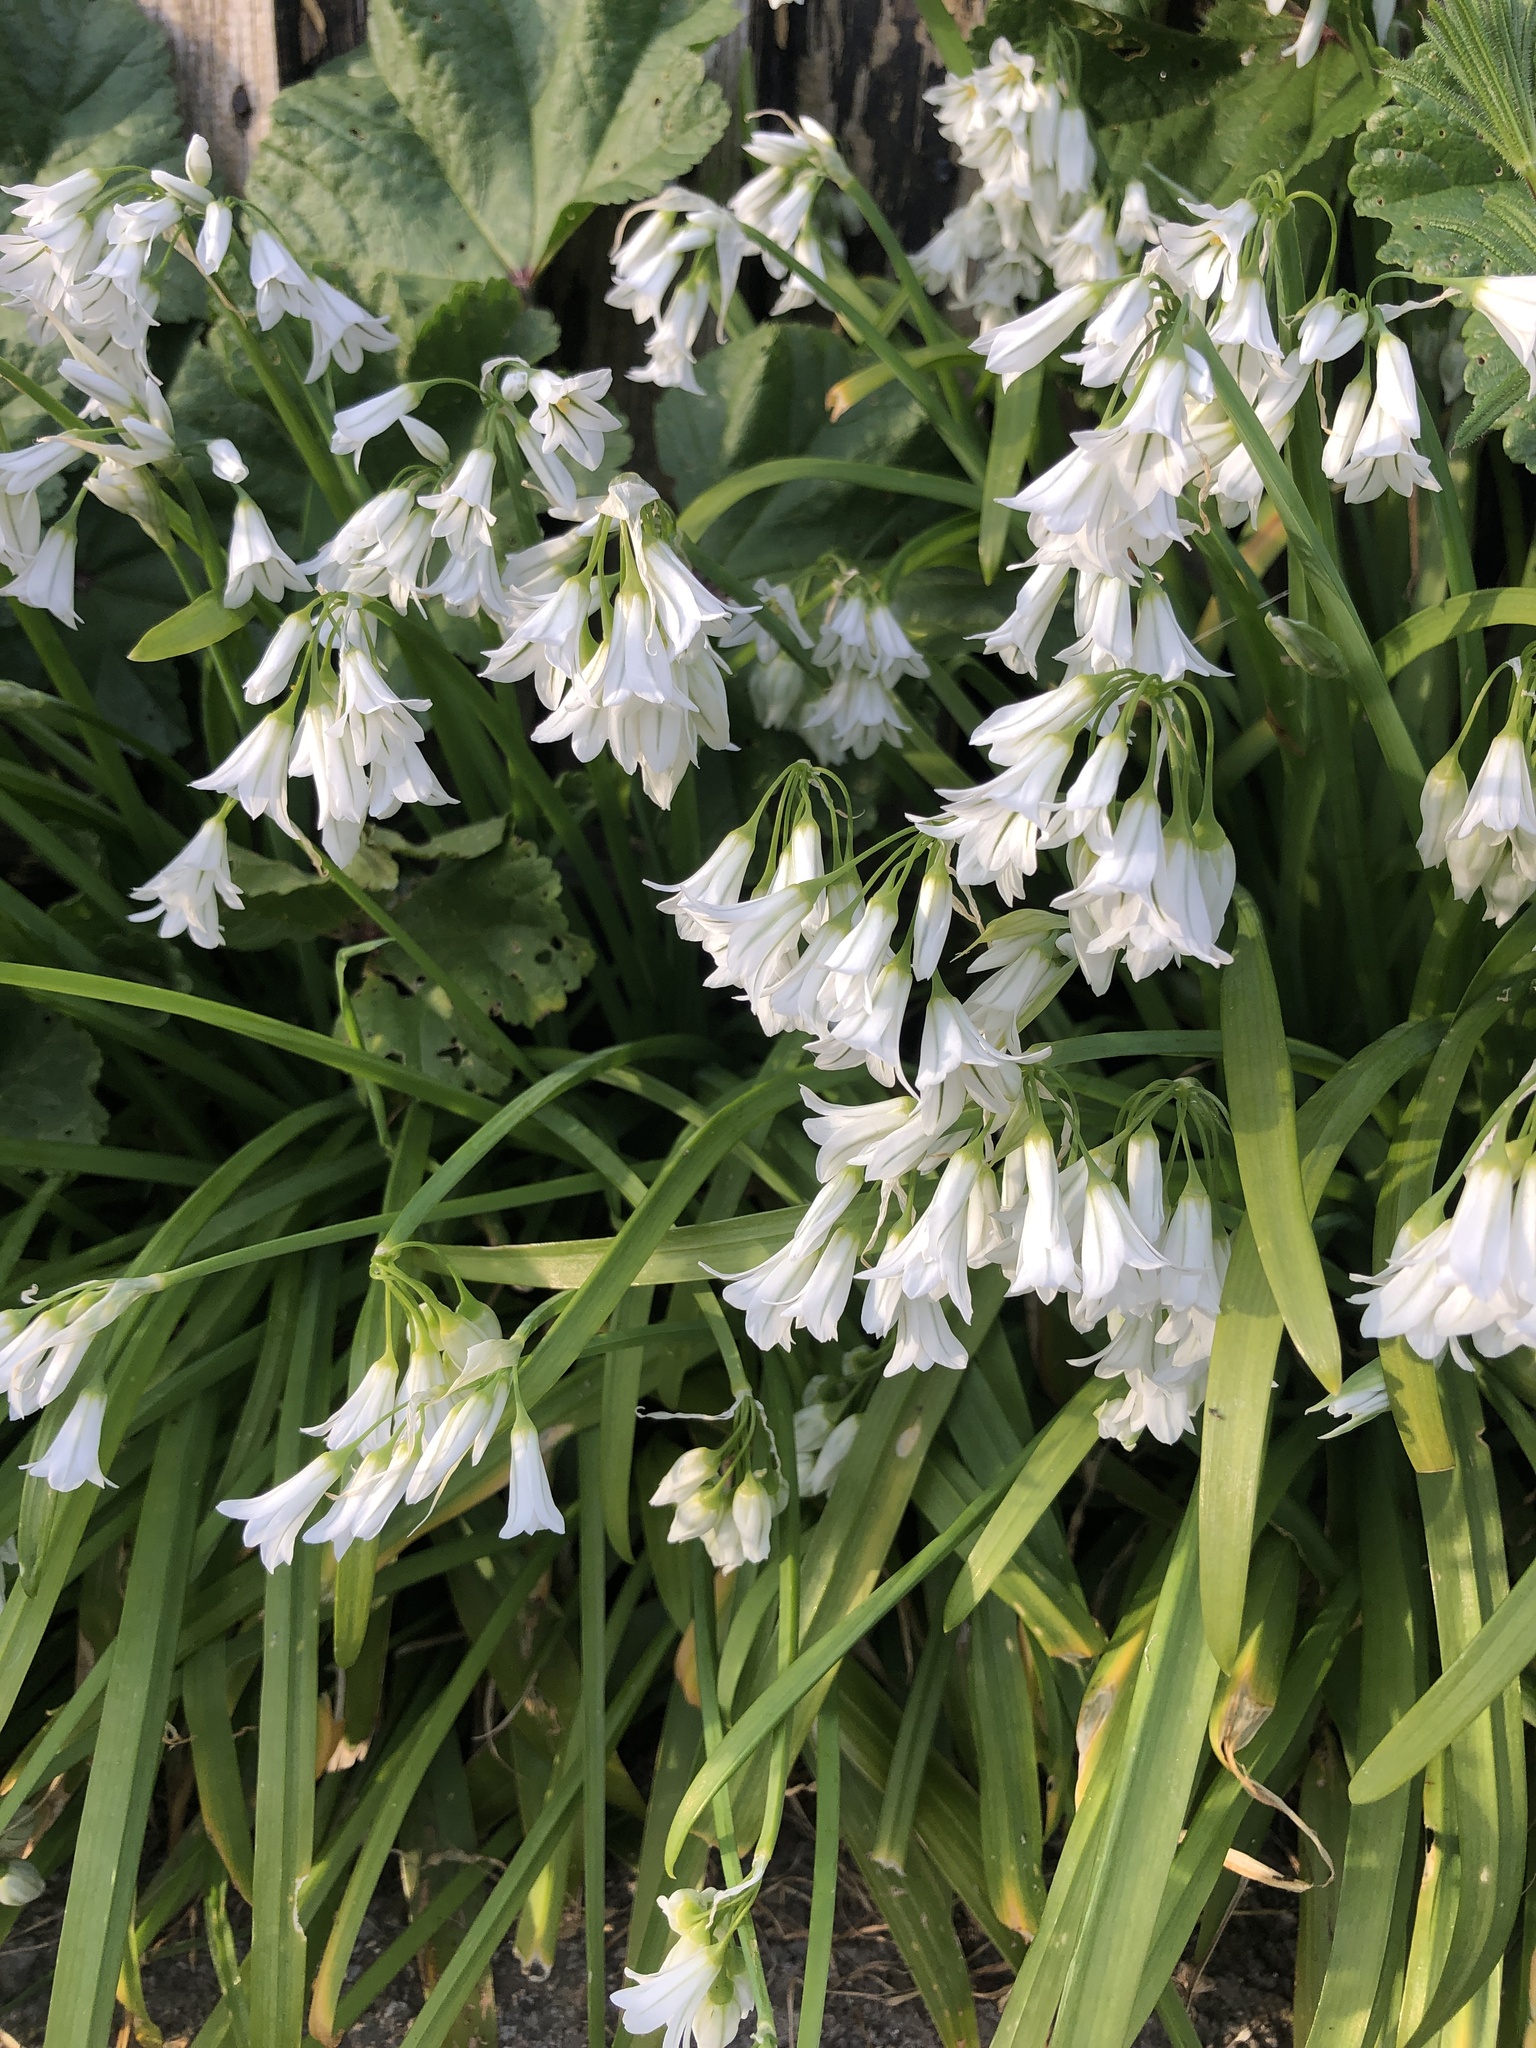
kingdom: Plantae
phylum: Tracheophyta
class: Liliopsida
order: Asparagales
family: Amaryllidaceae
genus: Allium
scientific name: Allium triquetrum
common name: Three-cornered garlic
